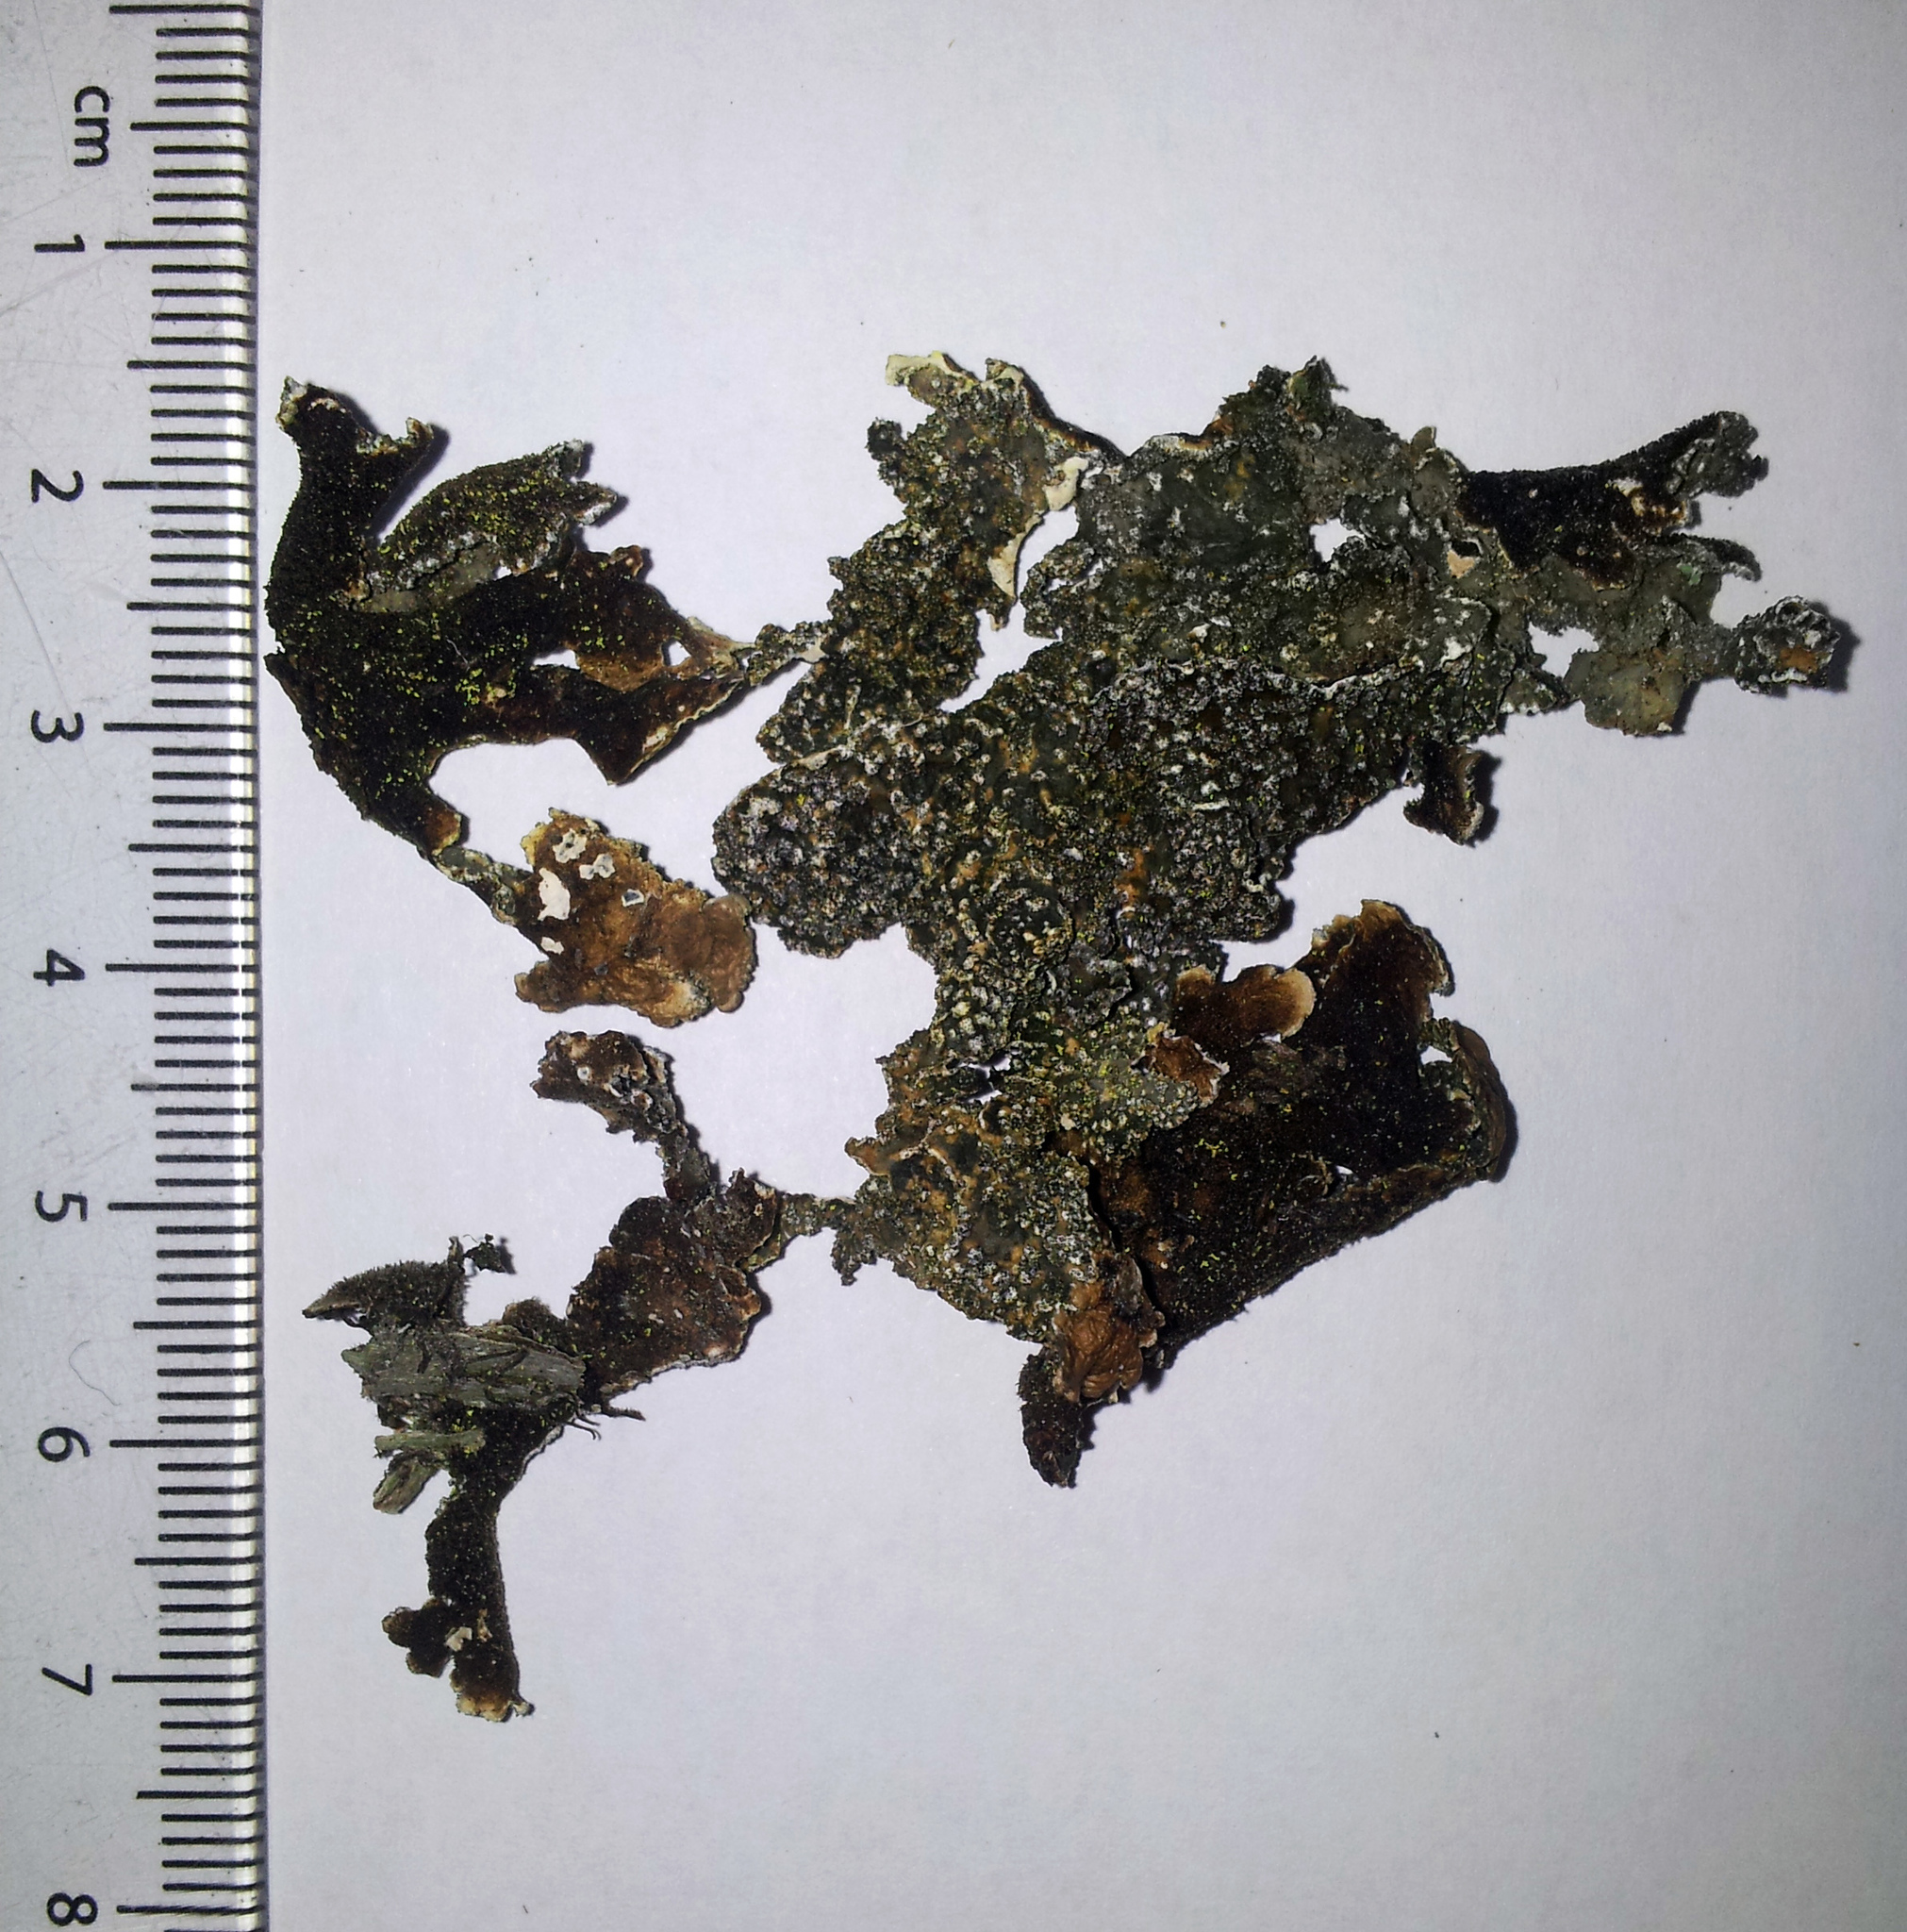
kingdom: Fungi
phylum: Ascomycota
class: Lecanoromycetes
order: Peltigerales
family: Lobariaceae
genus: Pseudocyphellaria
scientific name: Pseudocyphellaria haywardiorum
